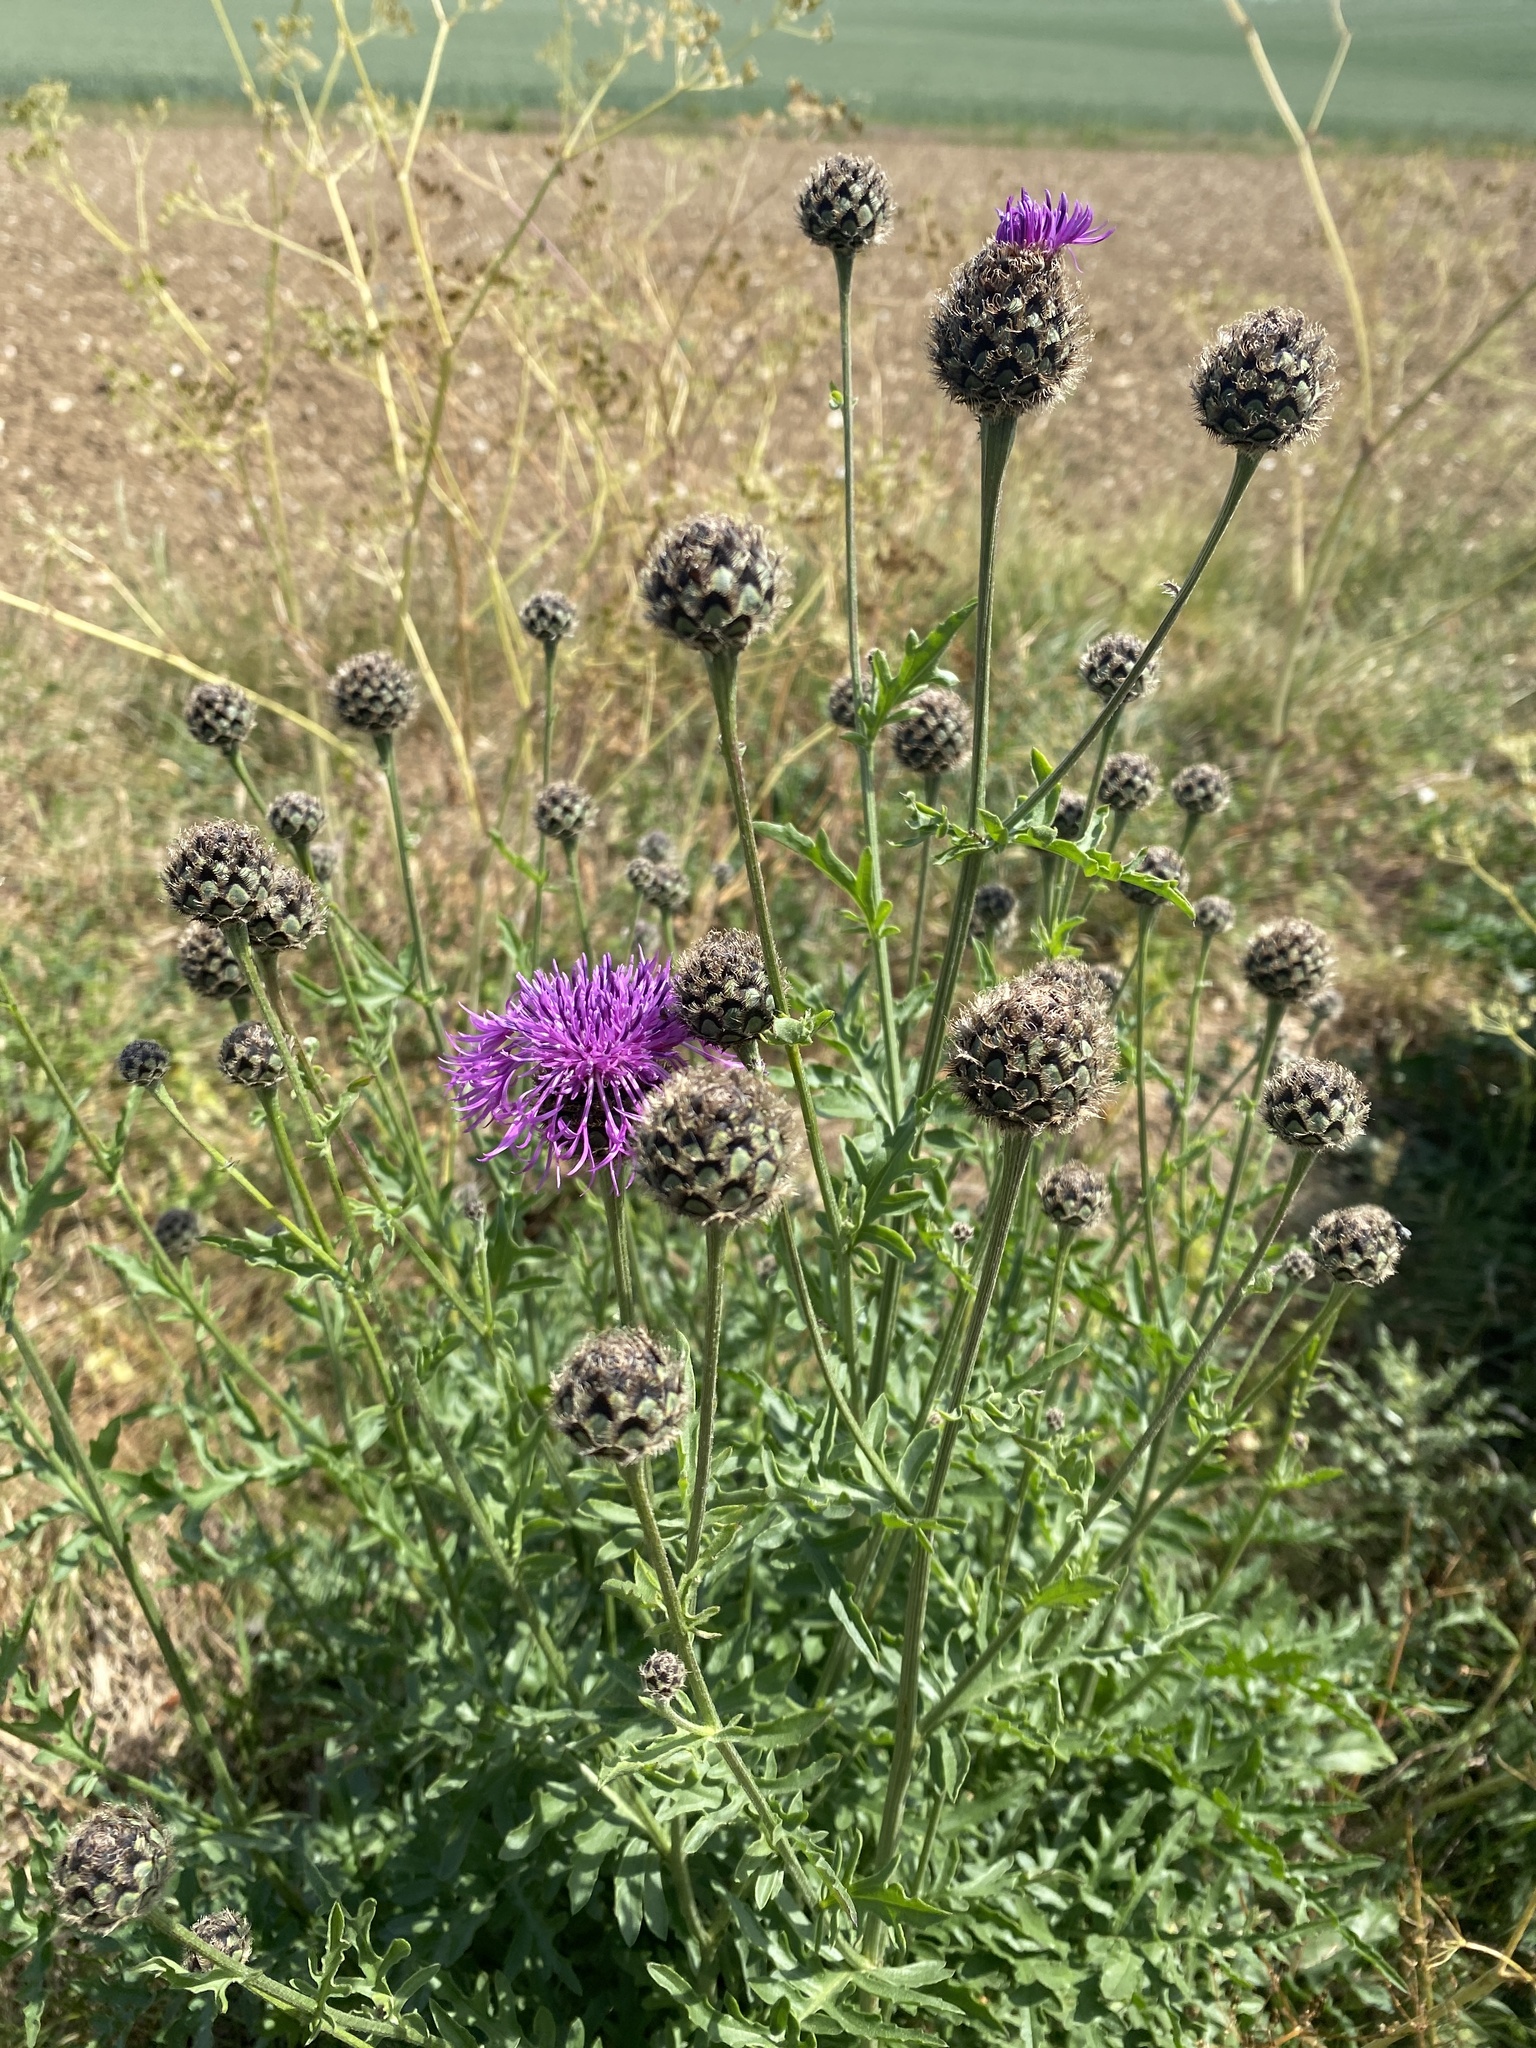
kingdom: Plantae
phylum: Tracheophyta
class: Magnoliopsida
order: Asterales
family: Asteraceae
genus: Centaurea
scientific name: Centaurea scabiosa
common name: Greater knapweed
